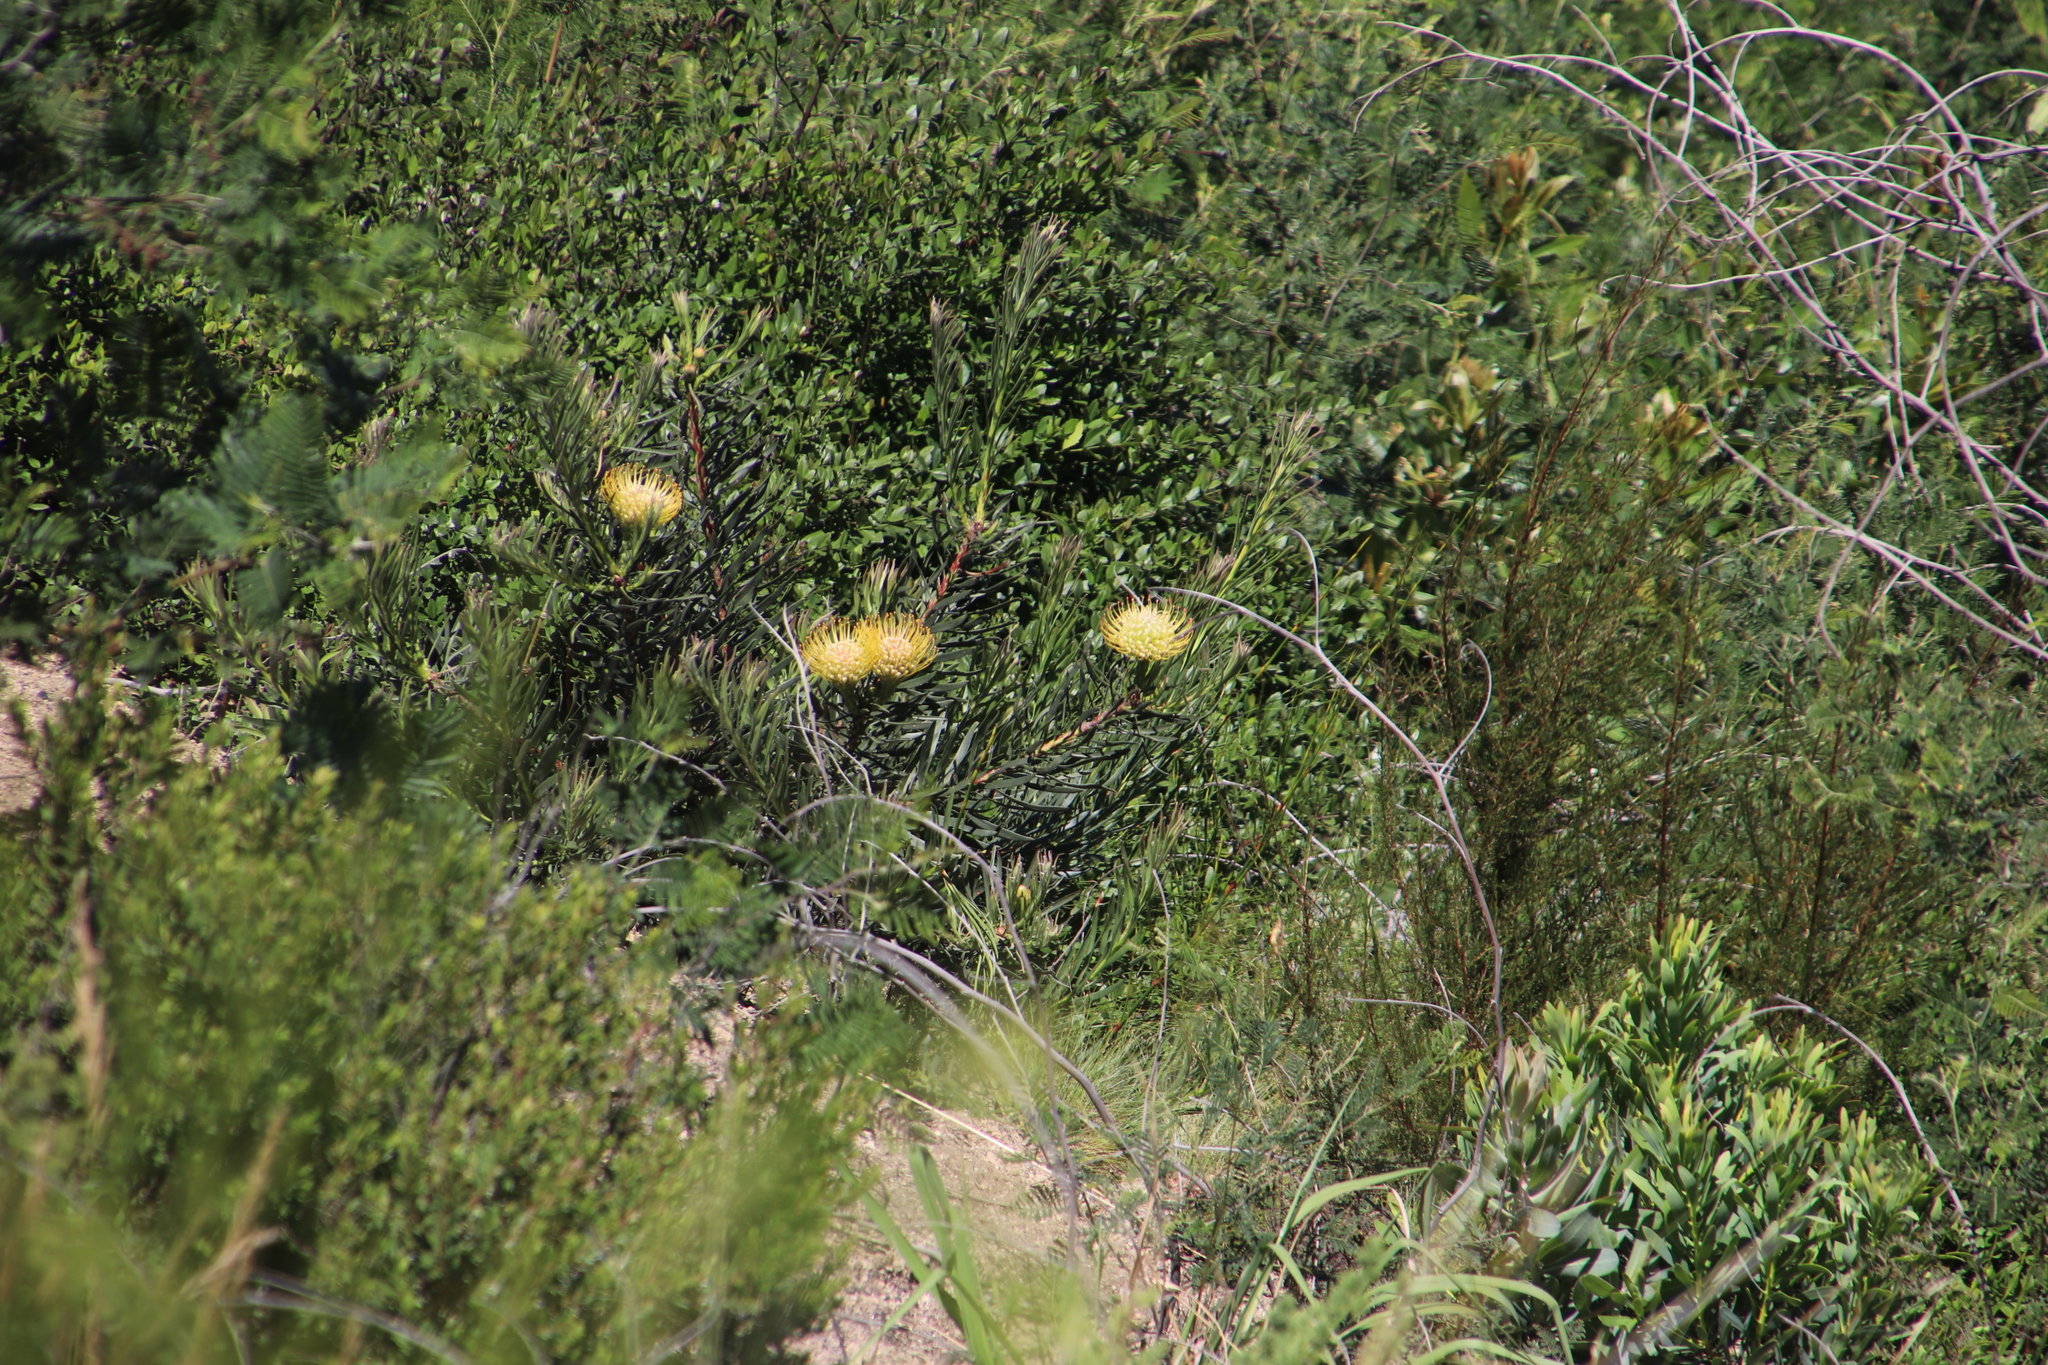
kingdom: Plantae
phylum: Tracheophyta
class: Magnoliopsida
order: Proteales
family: Proteaceae
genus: Leucospermum
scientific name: Leucospermum lineare
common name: Needle-leaf pincushion
